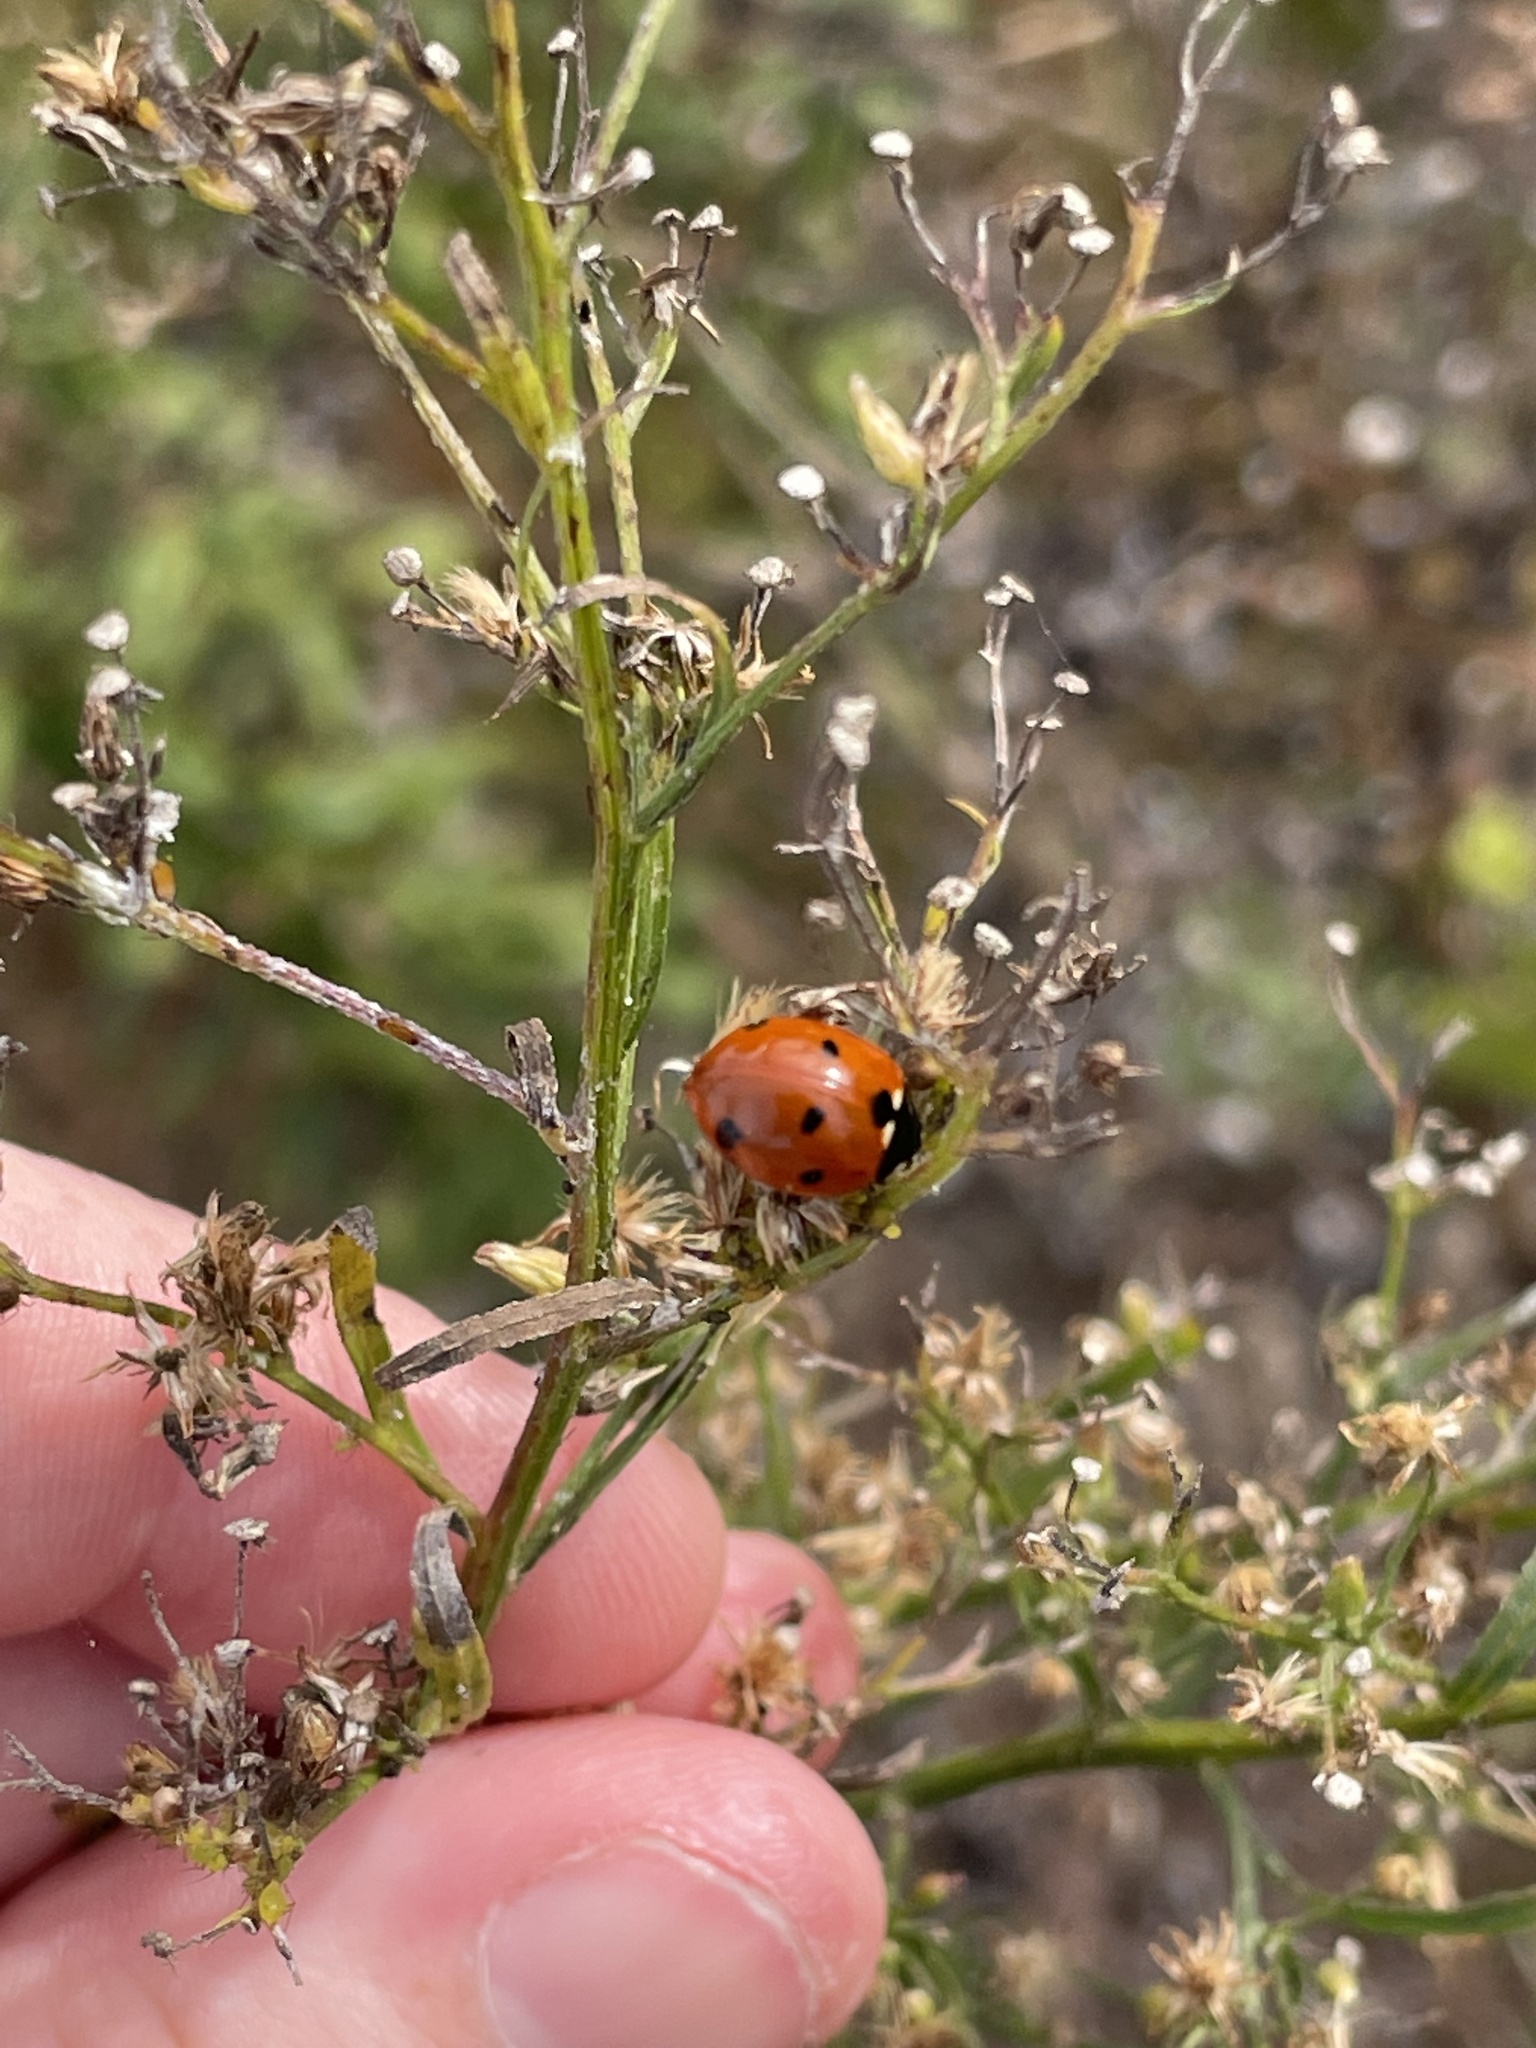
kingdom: Animalia
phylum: Arthropoda
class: Insecta
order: Coleoptera
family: Coccinellidae
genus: Coccinella
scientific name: Coccinella septempunctata
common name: Sevenspotted lady beetle
